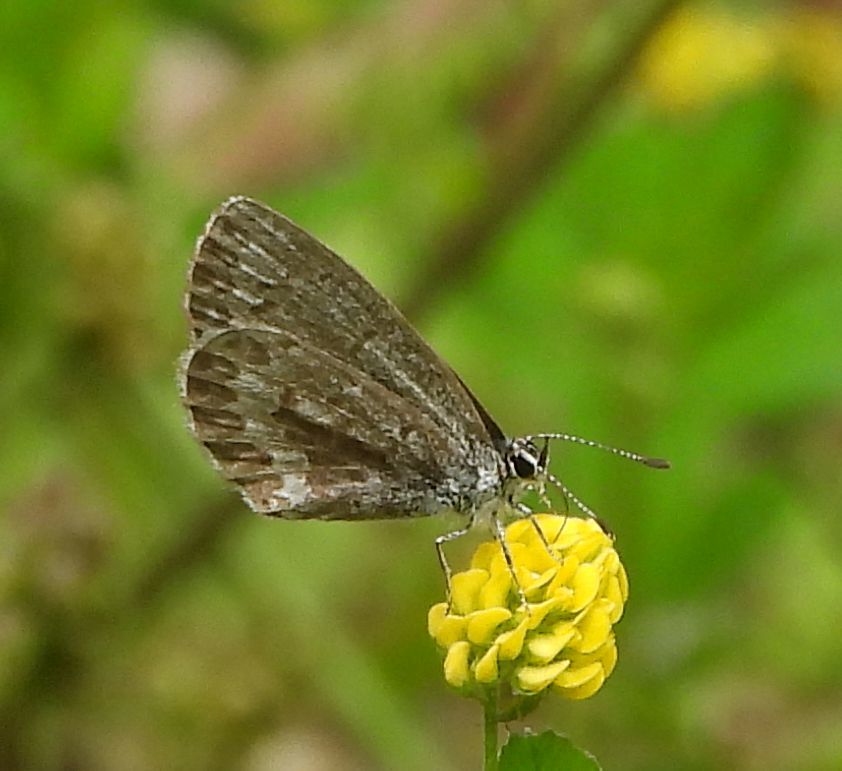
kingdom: Animalia
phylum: Arthropoda
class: Insecta
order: Lepidoptera
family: Lycaenidae
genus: Celastrina
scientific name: Celastrina lucia
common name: Lucia azure
